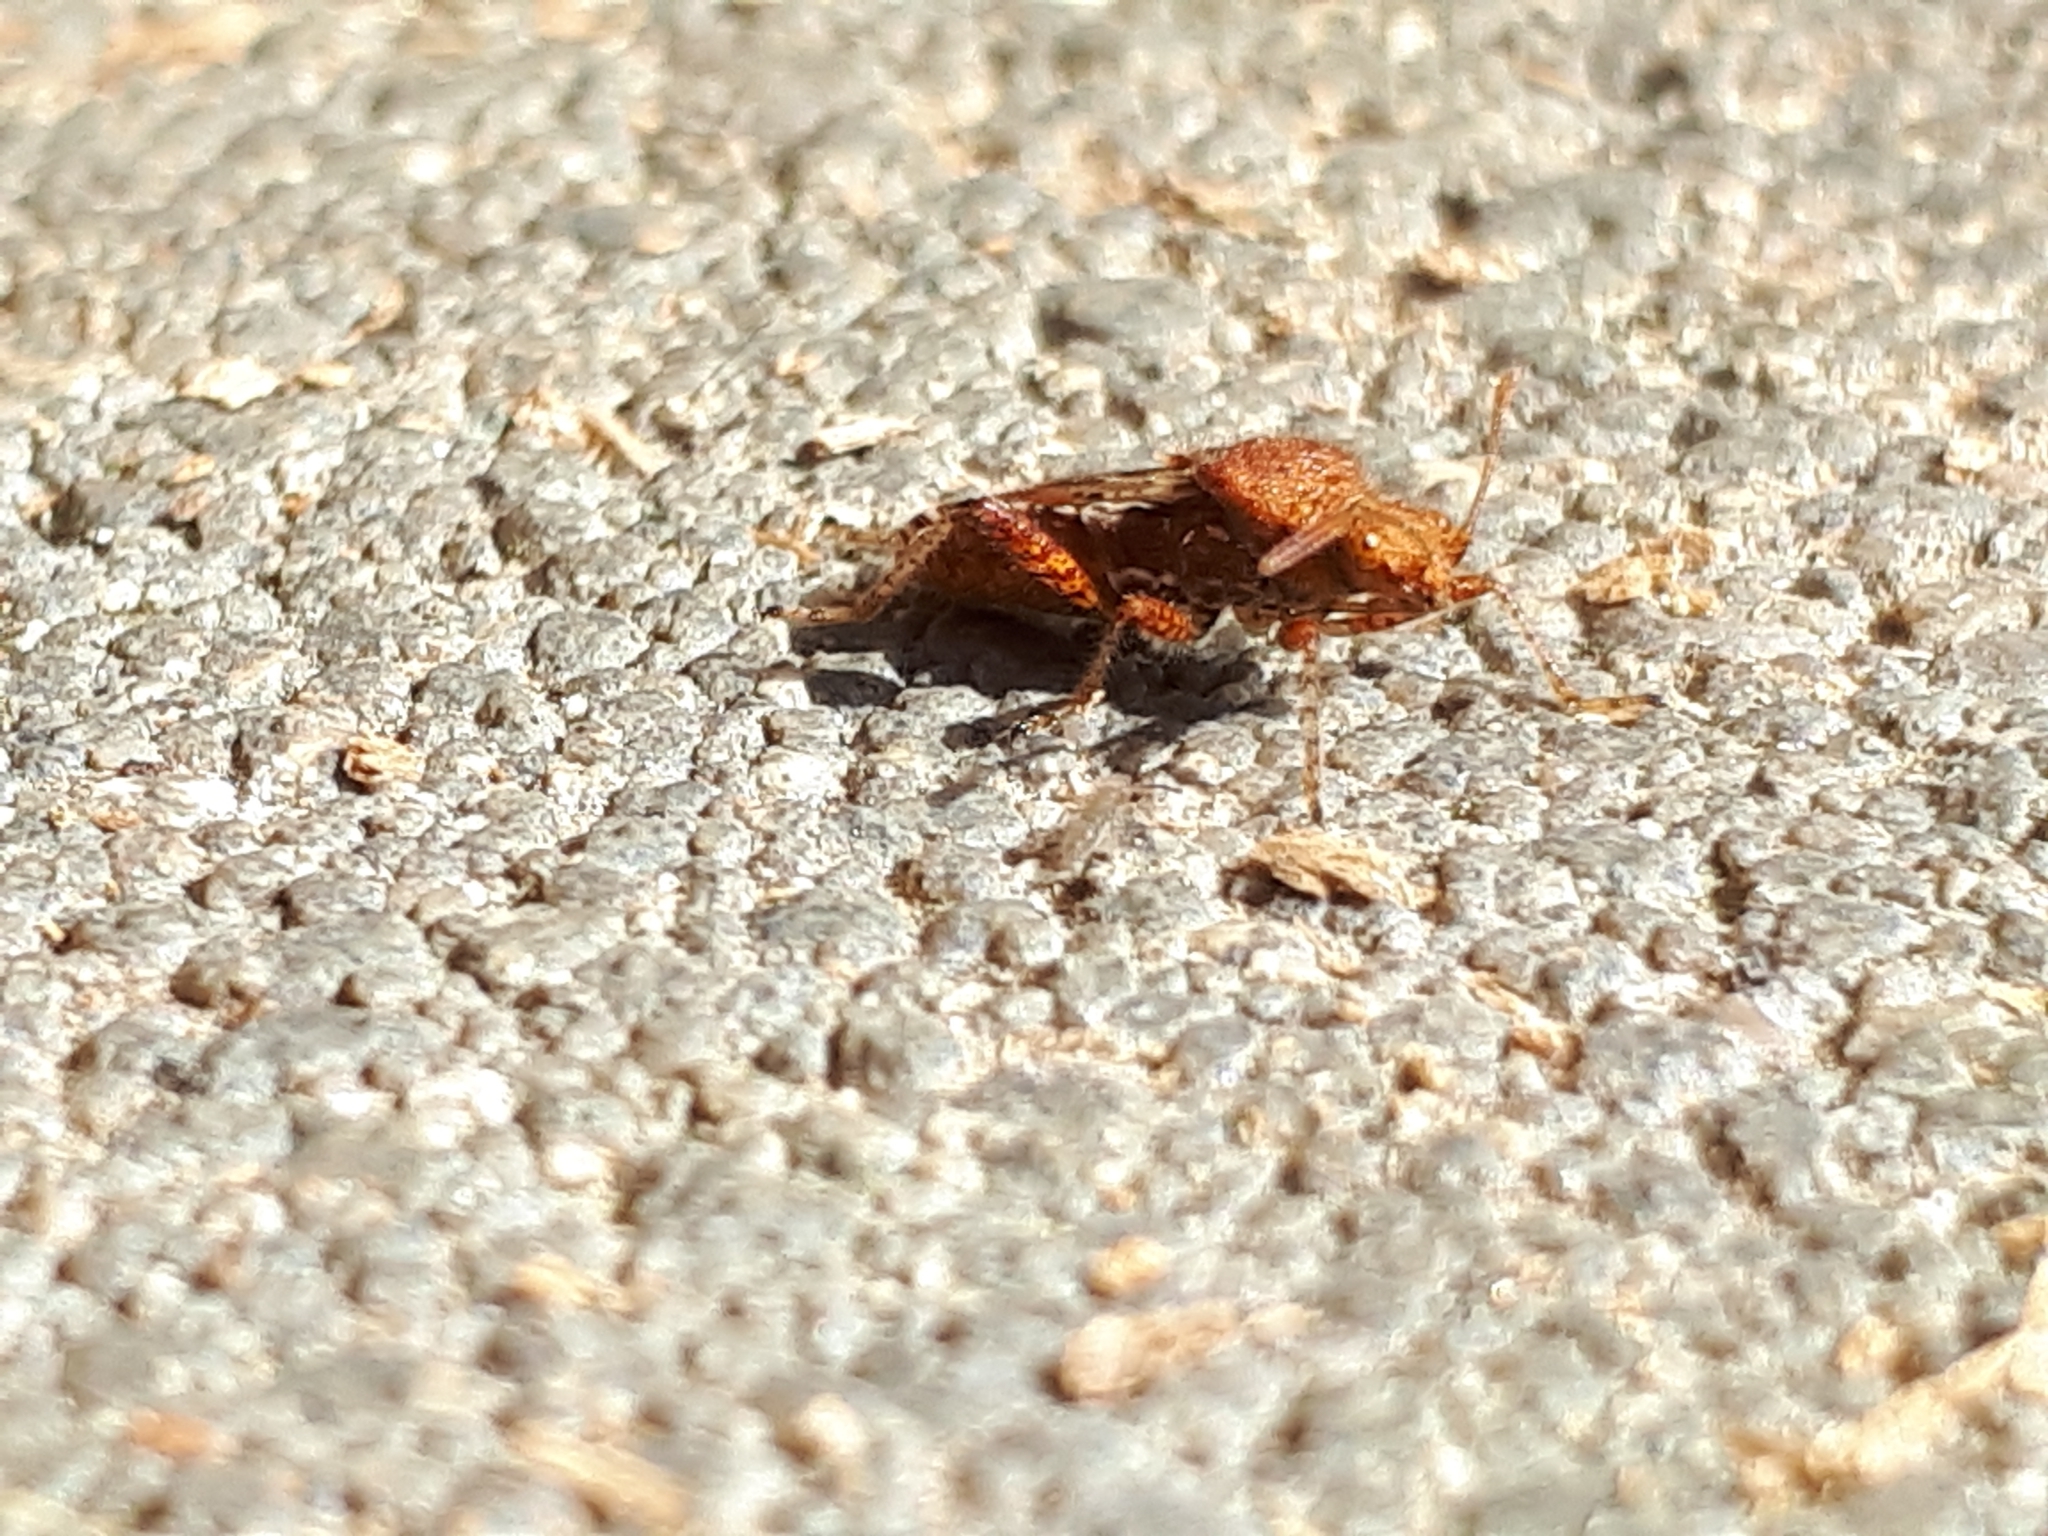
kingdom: Animalia
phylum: Arthropoda
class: Insecta
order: Hemiptera
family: Rhopalidae
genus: Rhopalus
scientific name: Rhopalus subrufus
